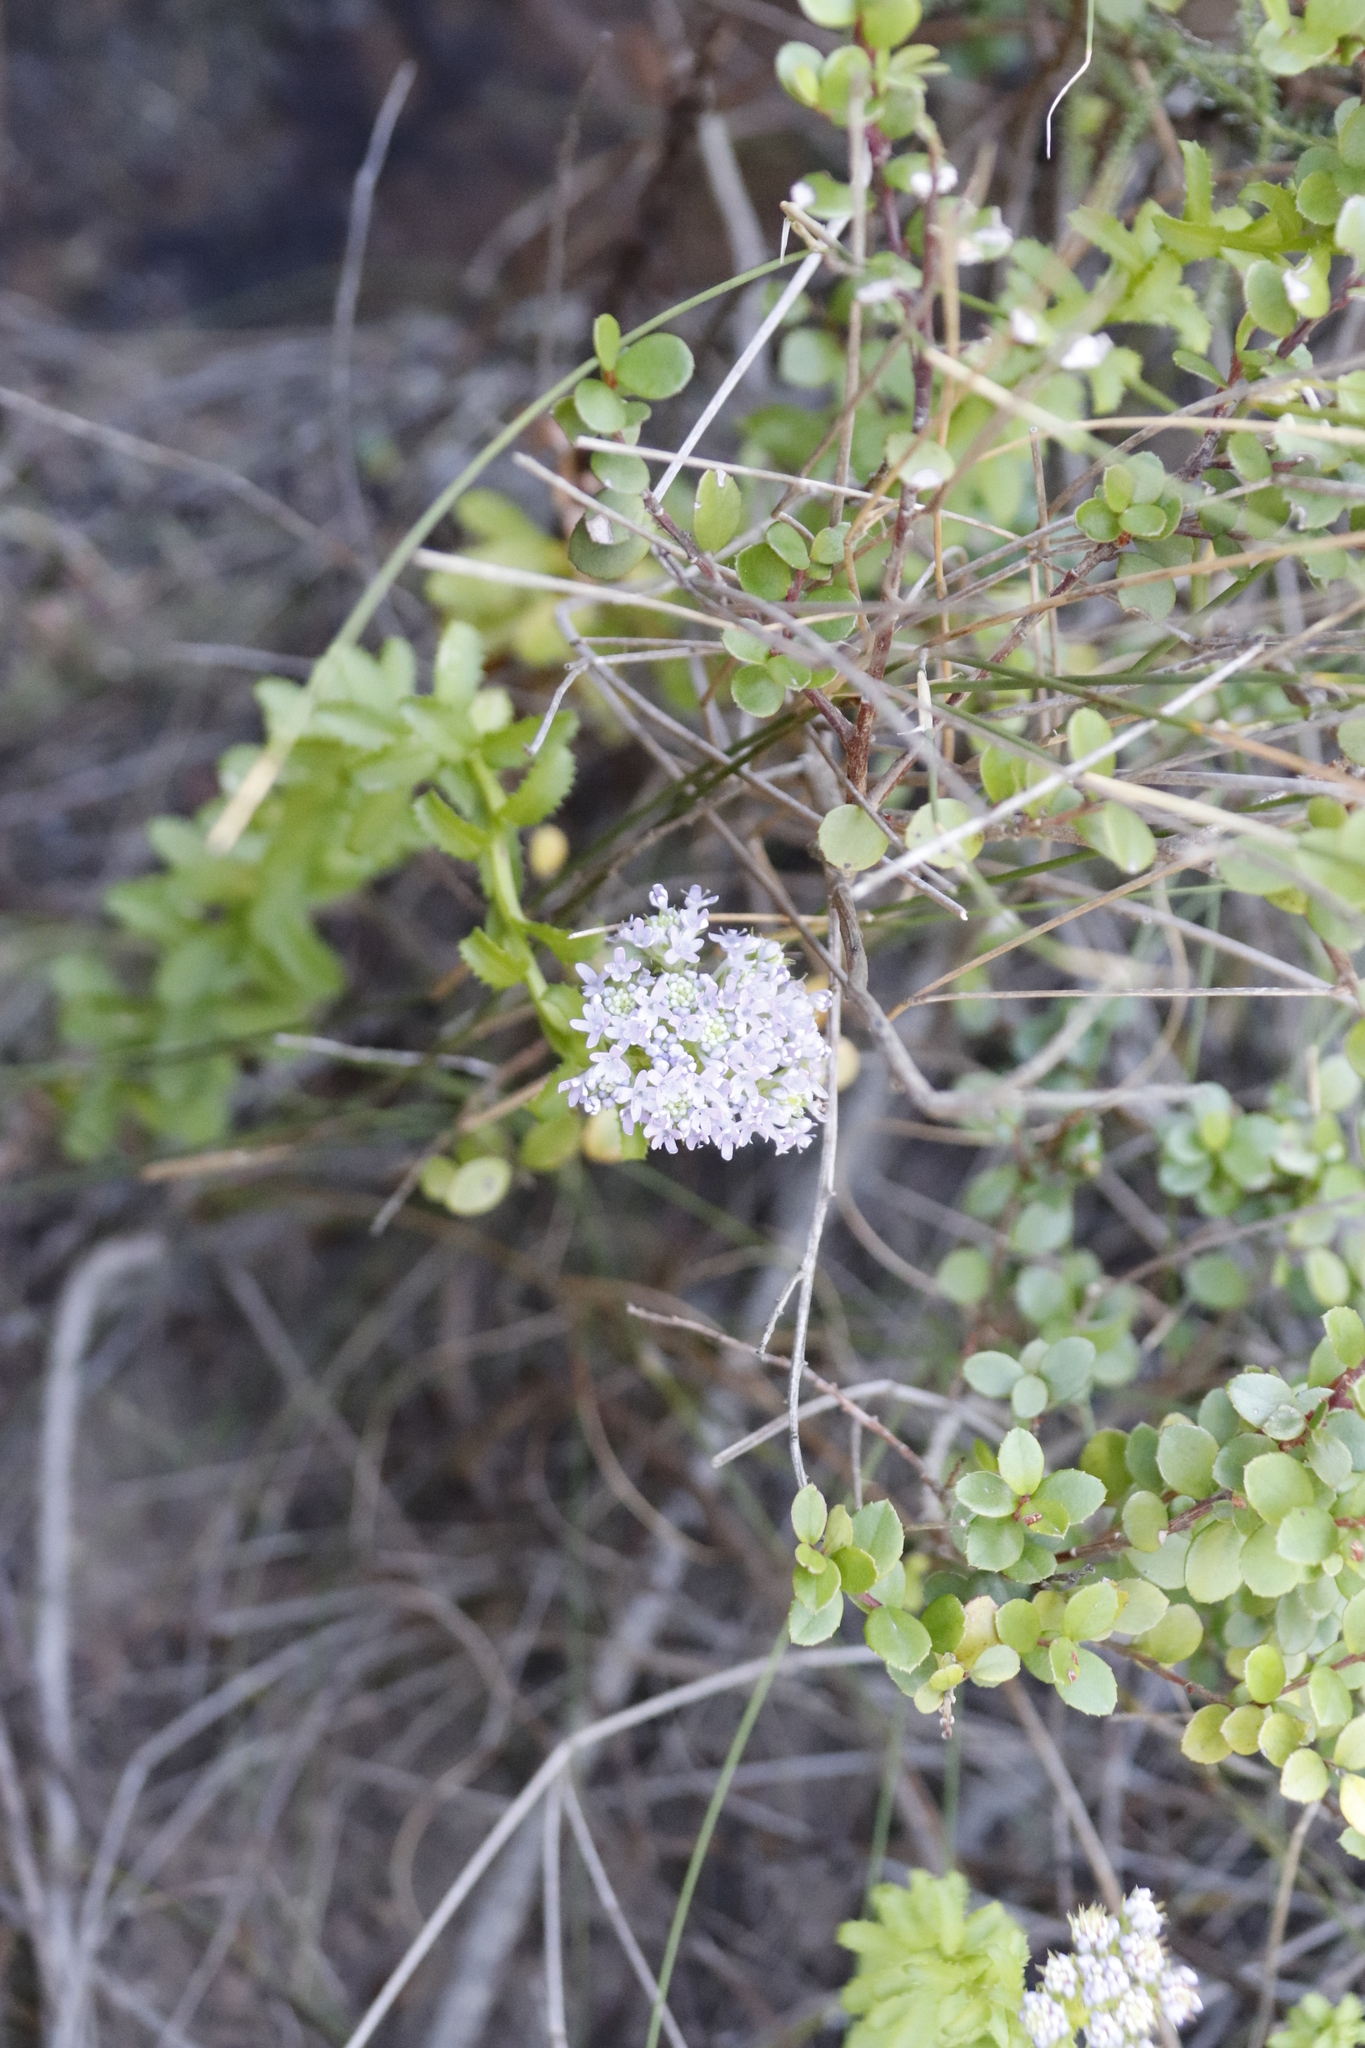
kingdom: Plantae
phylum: Tracheophyta
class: Magnoliopsida
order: Lamiales
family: Scrophulariaceae
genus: Pseudoselago
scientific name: Pseudoselago serrata
